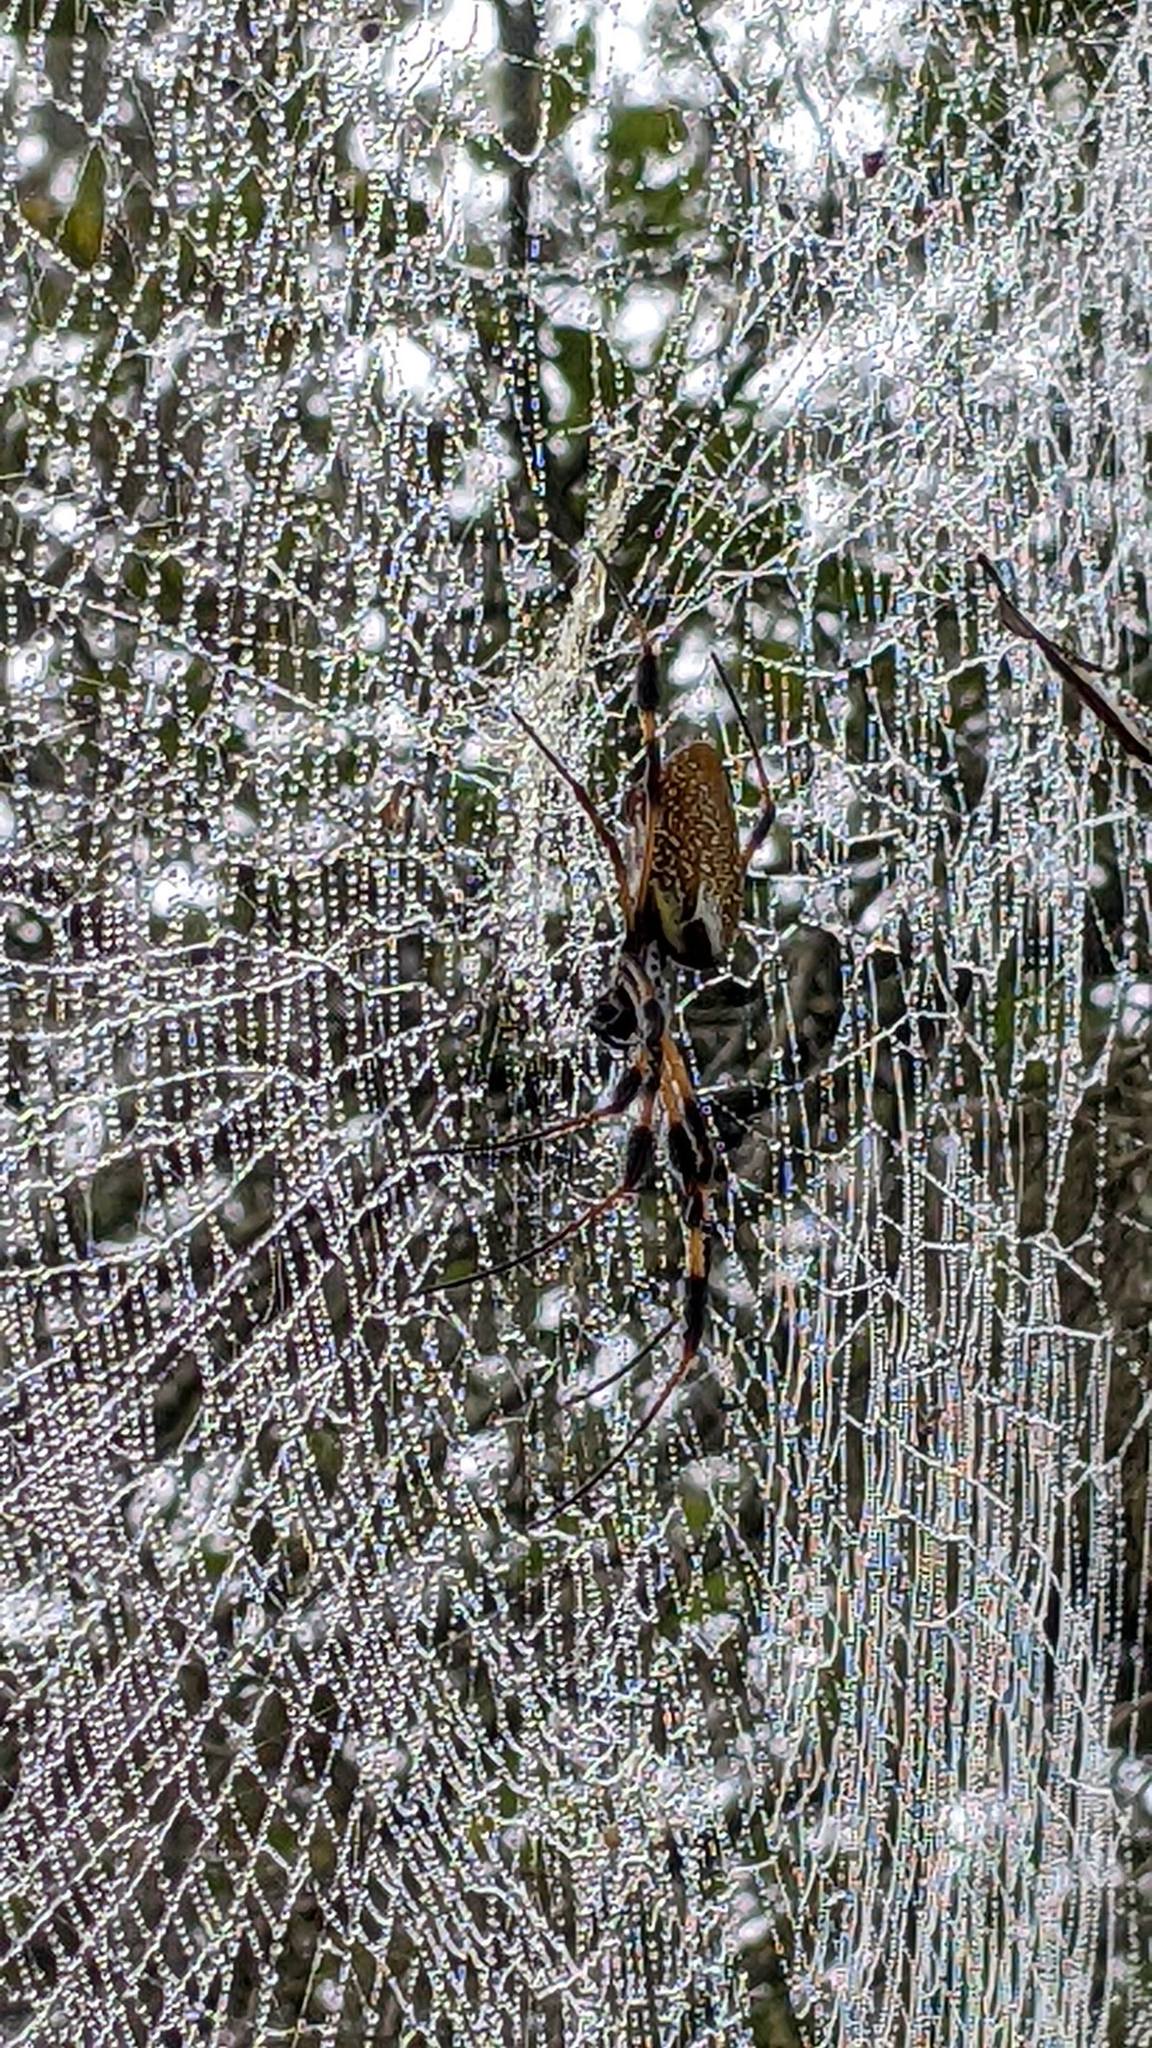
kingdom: Animalia
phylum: Arthropoda
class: Arachnida
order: Araneae
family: Araneidae
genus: Trichonephila
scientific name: Trichonephila clavipes
